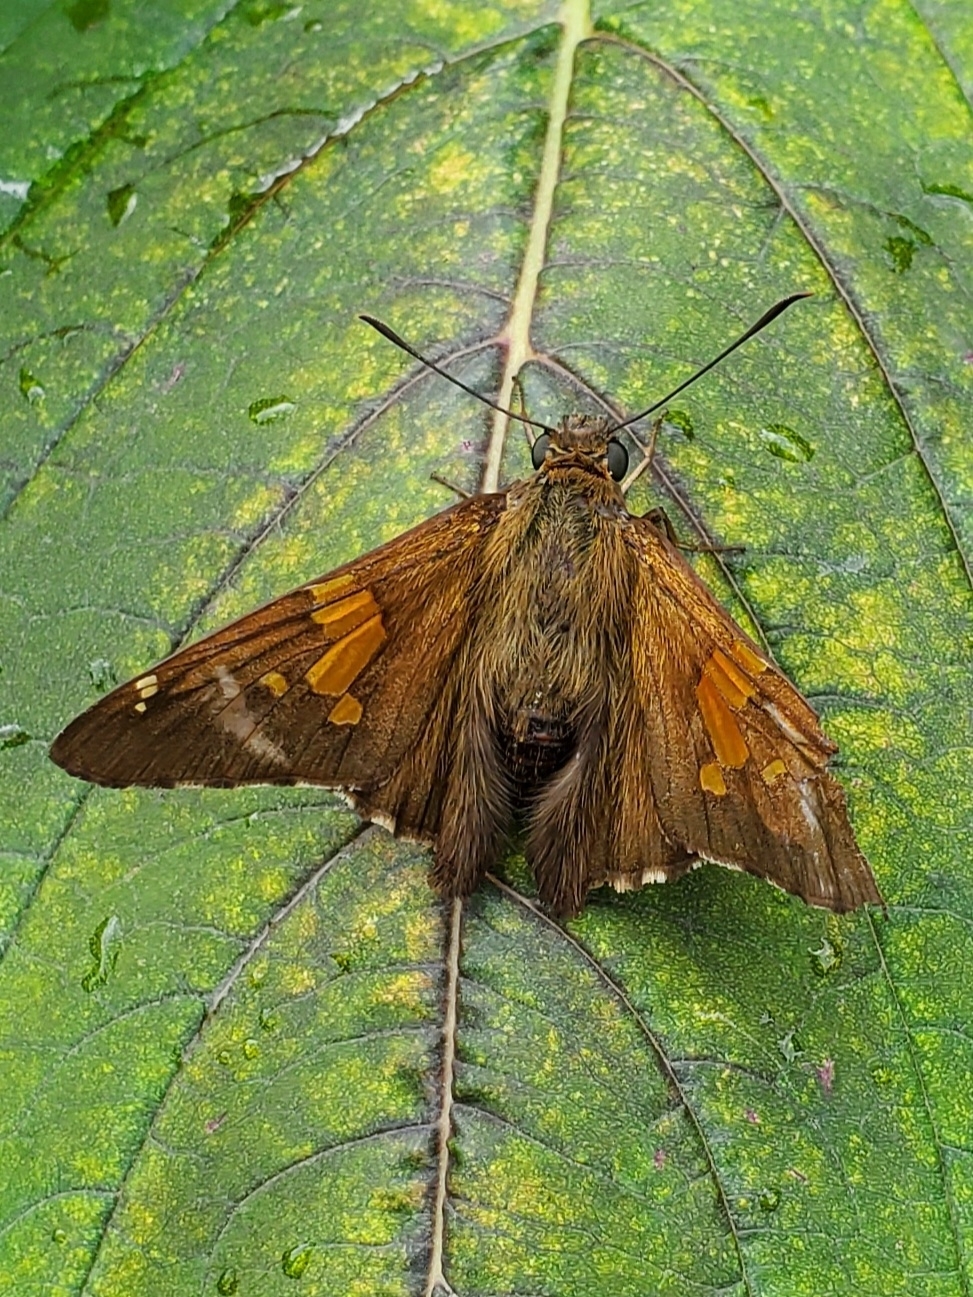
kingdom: Animalia
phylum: Arthropoda
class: Insecta
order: Lepidoptera
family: Hesperiidae
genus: Epargyreus
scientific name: Epargyreus clarus
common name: Silver-spotted skipper
